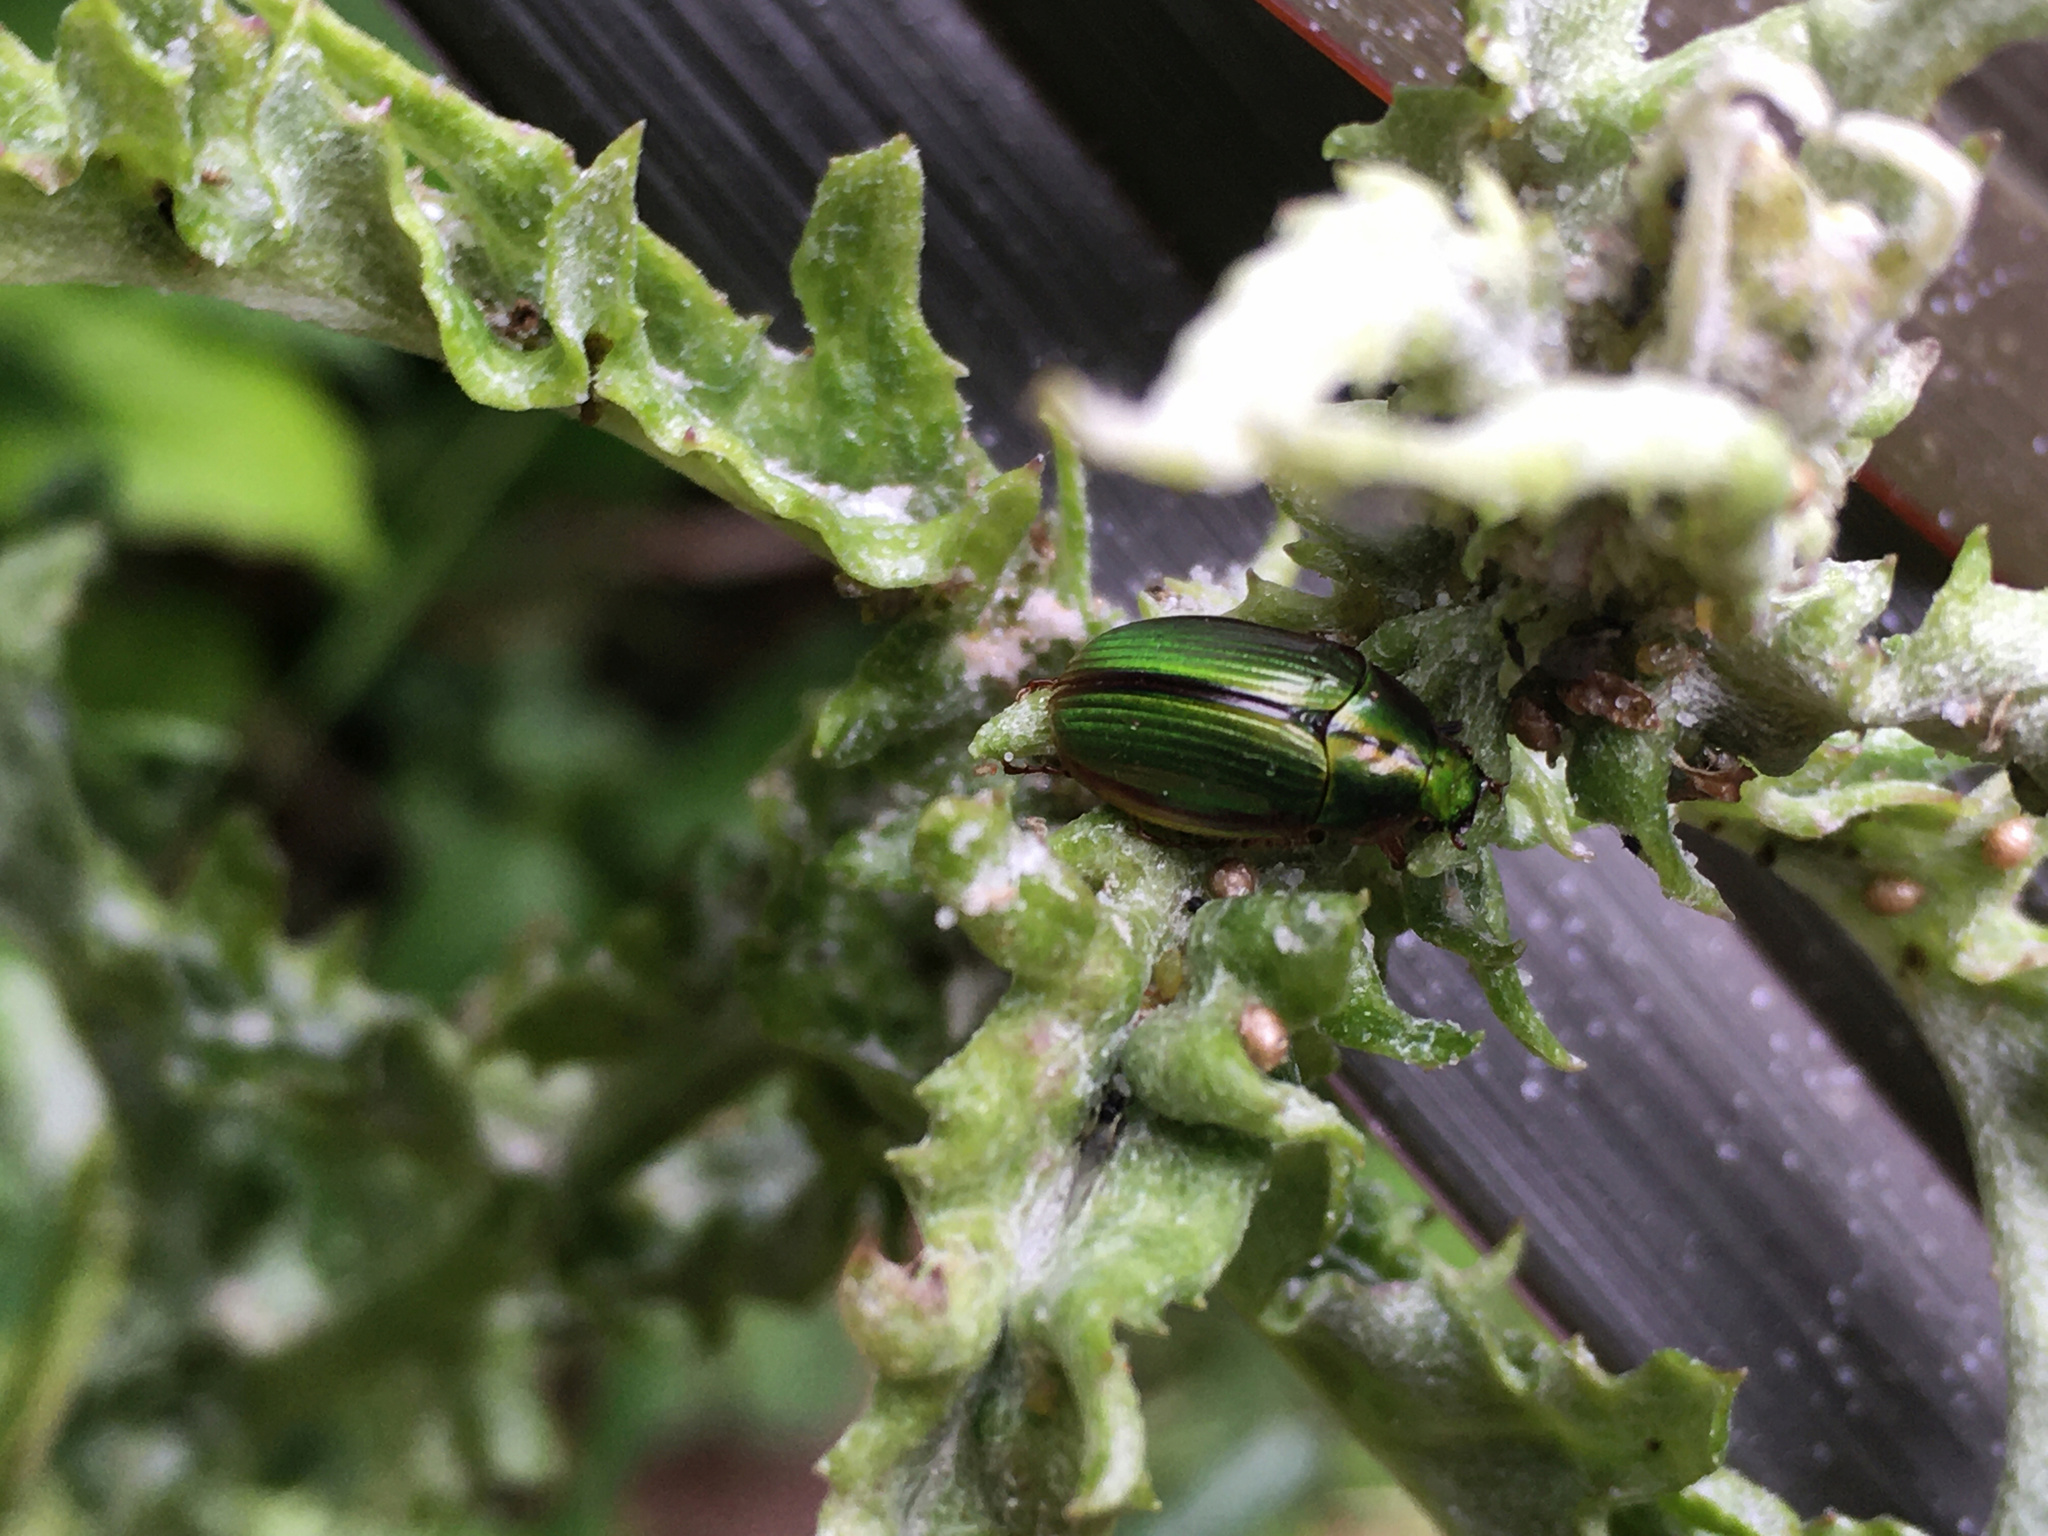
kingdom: Animalia
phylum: Arthropoda
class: Insecta
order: Coleoptera
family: Scarabaeidae
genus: Pyronota
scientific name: Pyronota festiva
